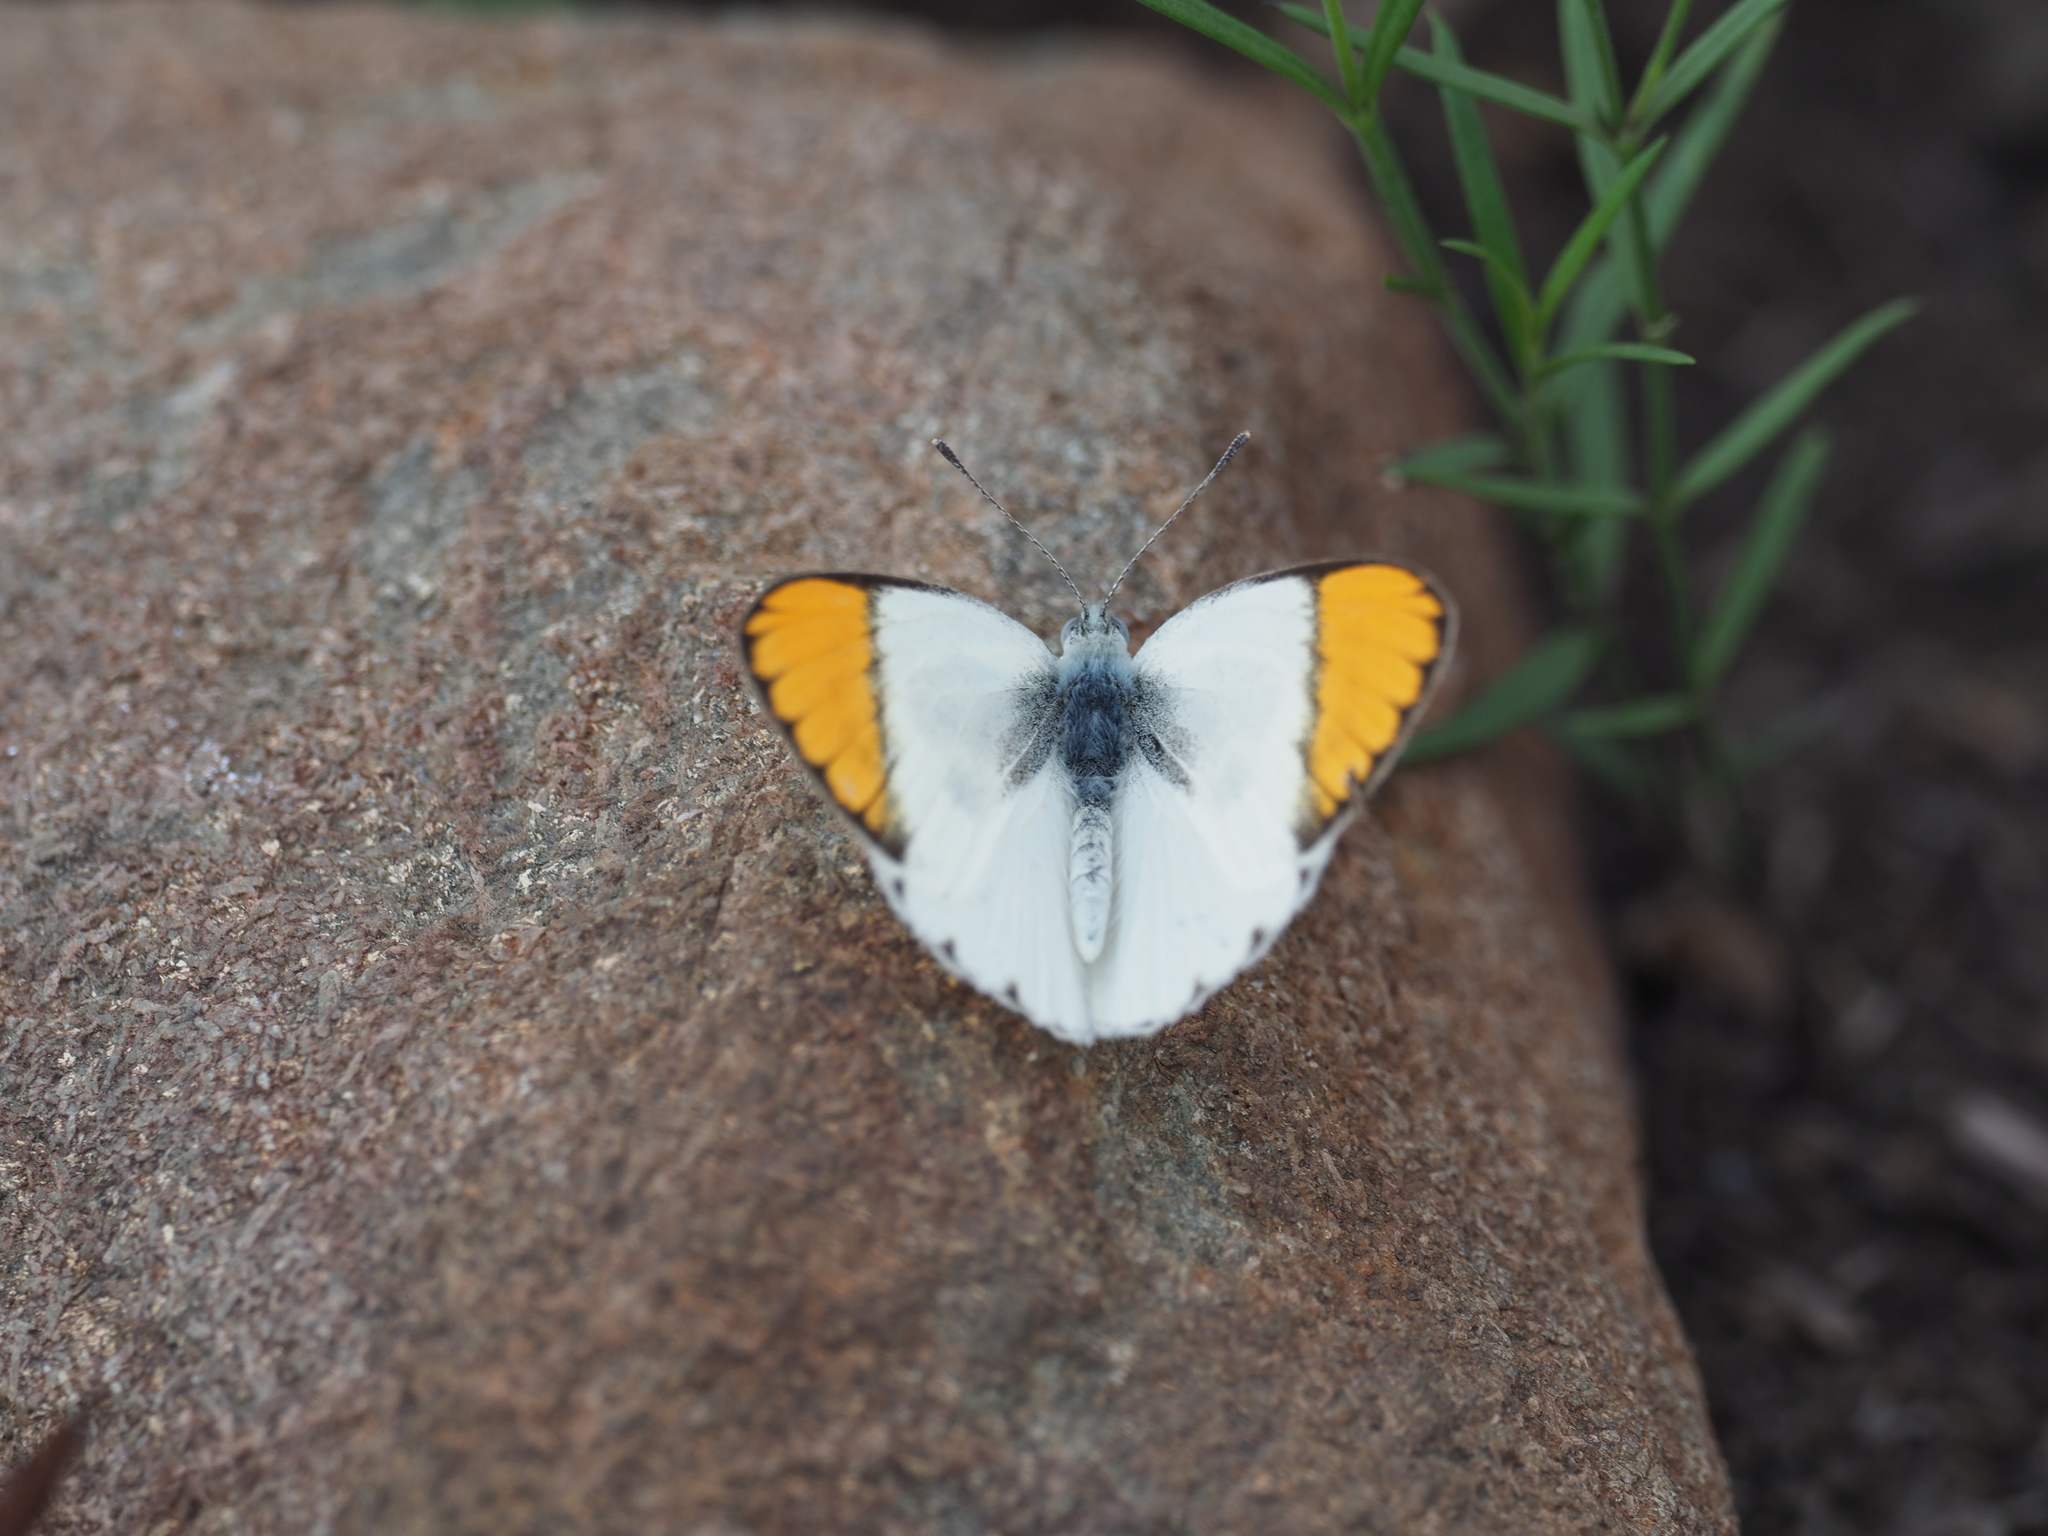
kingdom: Animalia
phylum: Arthropoda
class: Insecta
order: Lepidoptera
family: Pieridae
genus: Colotis
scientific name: Colotis evenina
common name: Common orange tip
